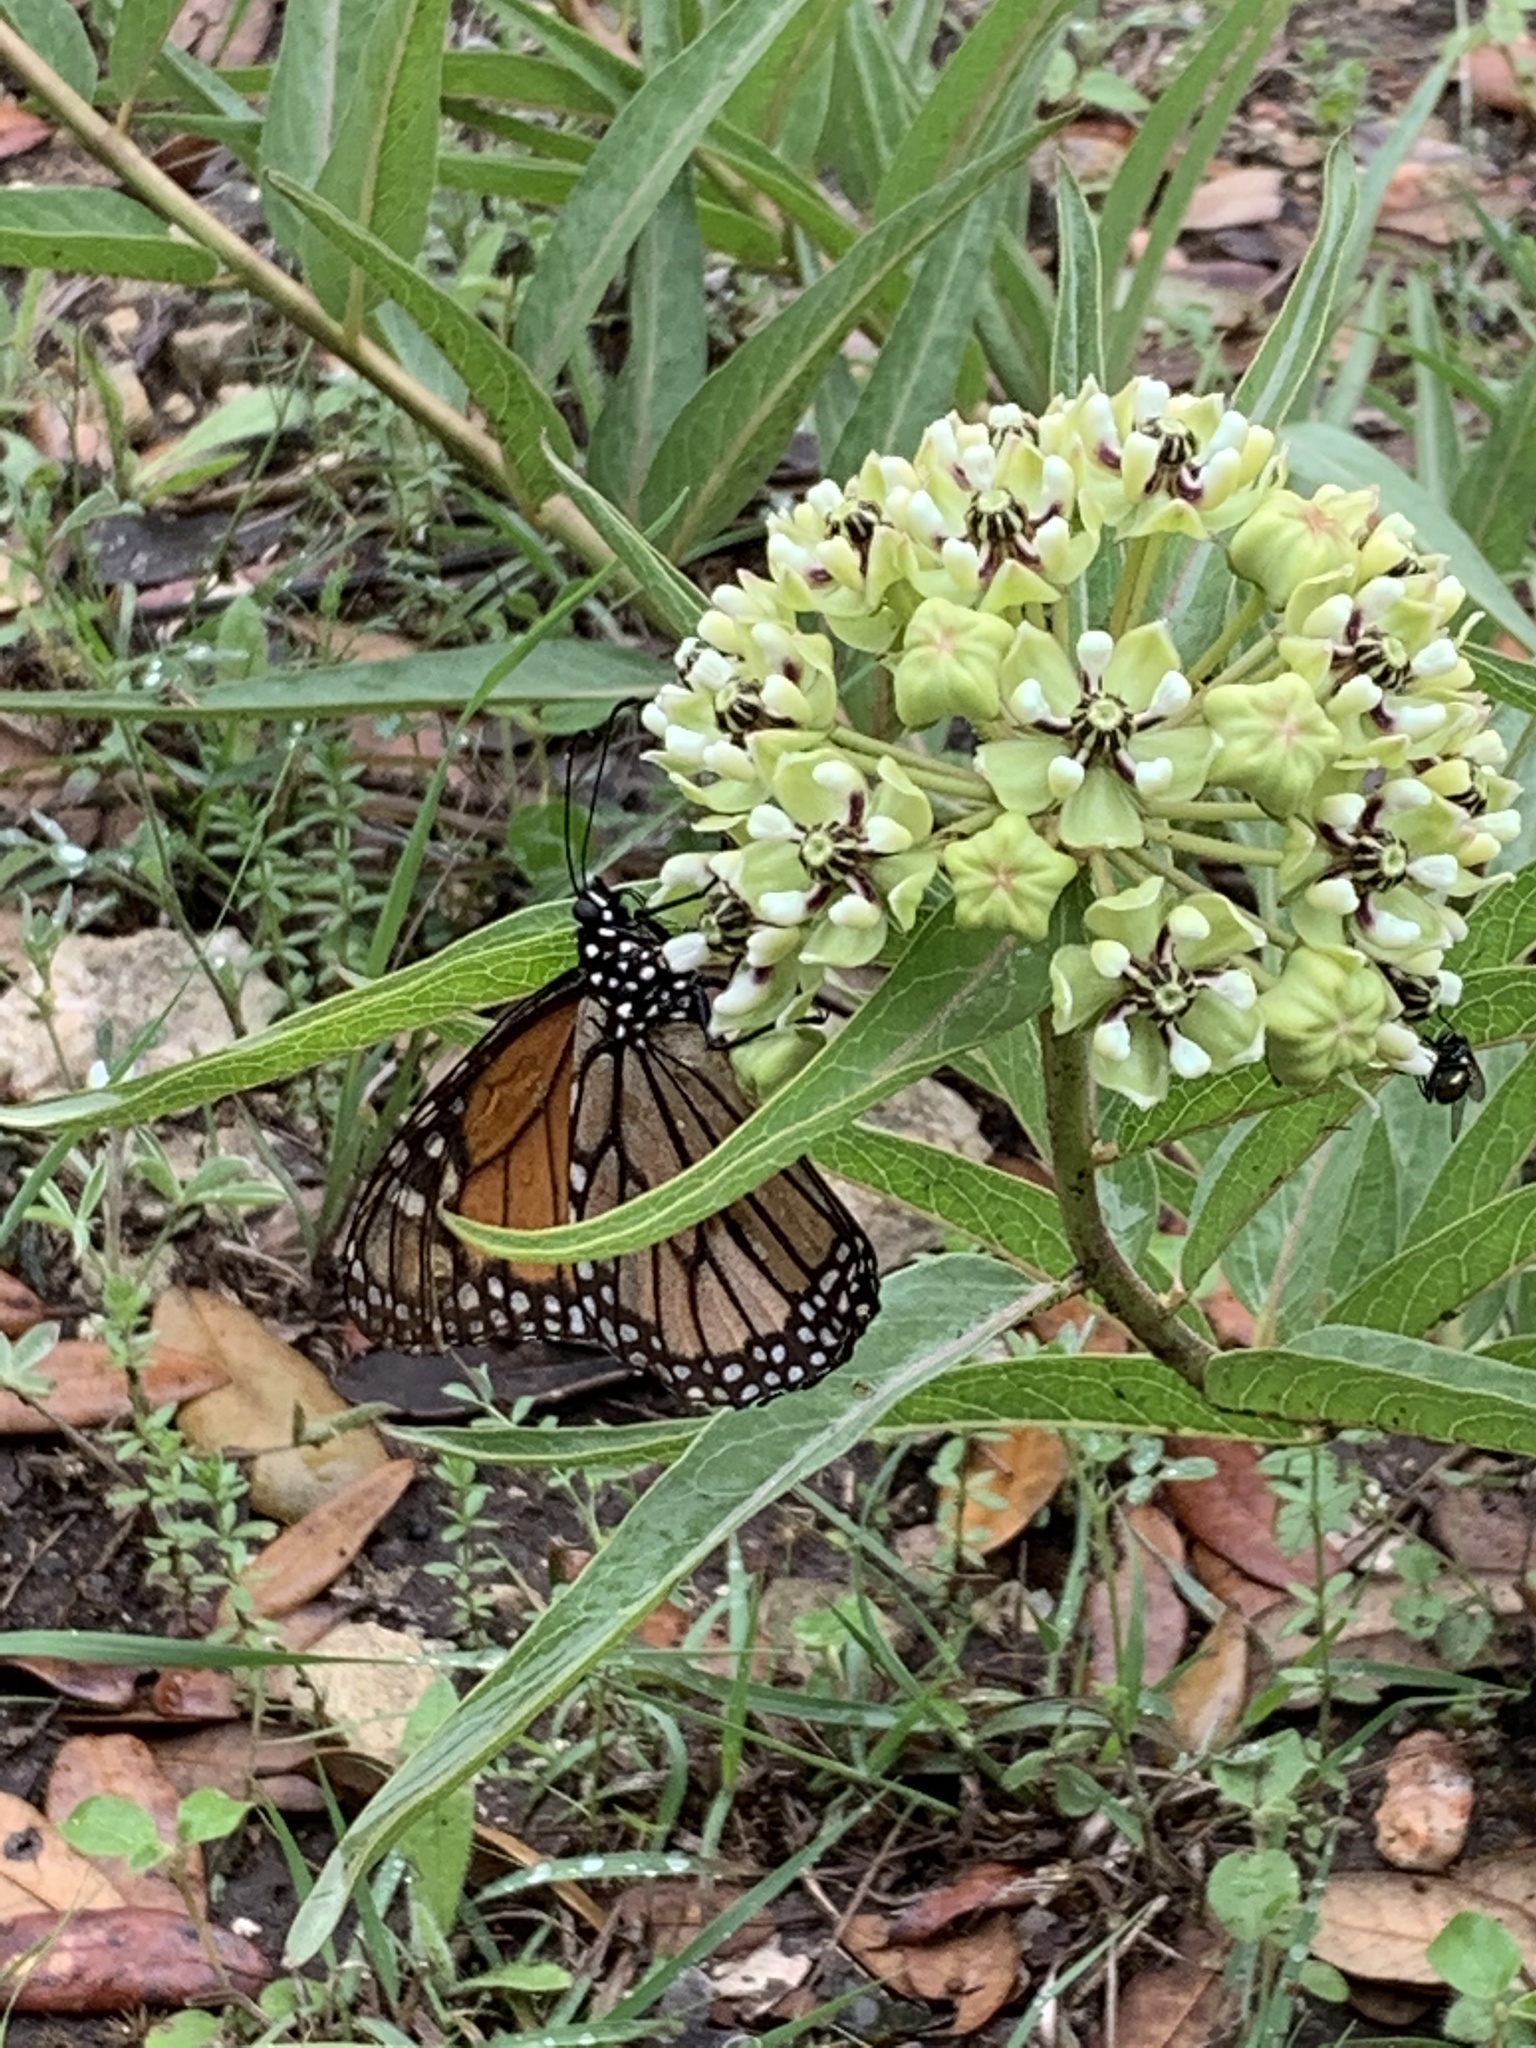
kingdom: Animalia
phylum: Arthropoda
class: Insecta
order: Lepidoptera
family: Nymphalidae
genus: Danaus
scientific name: Danaus plexippus
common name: Monarch
